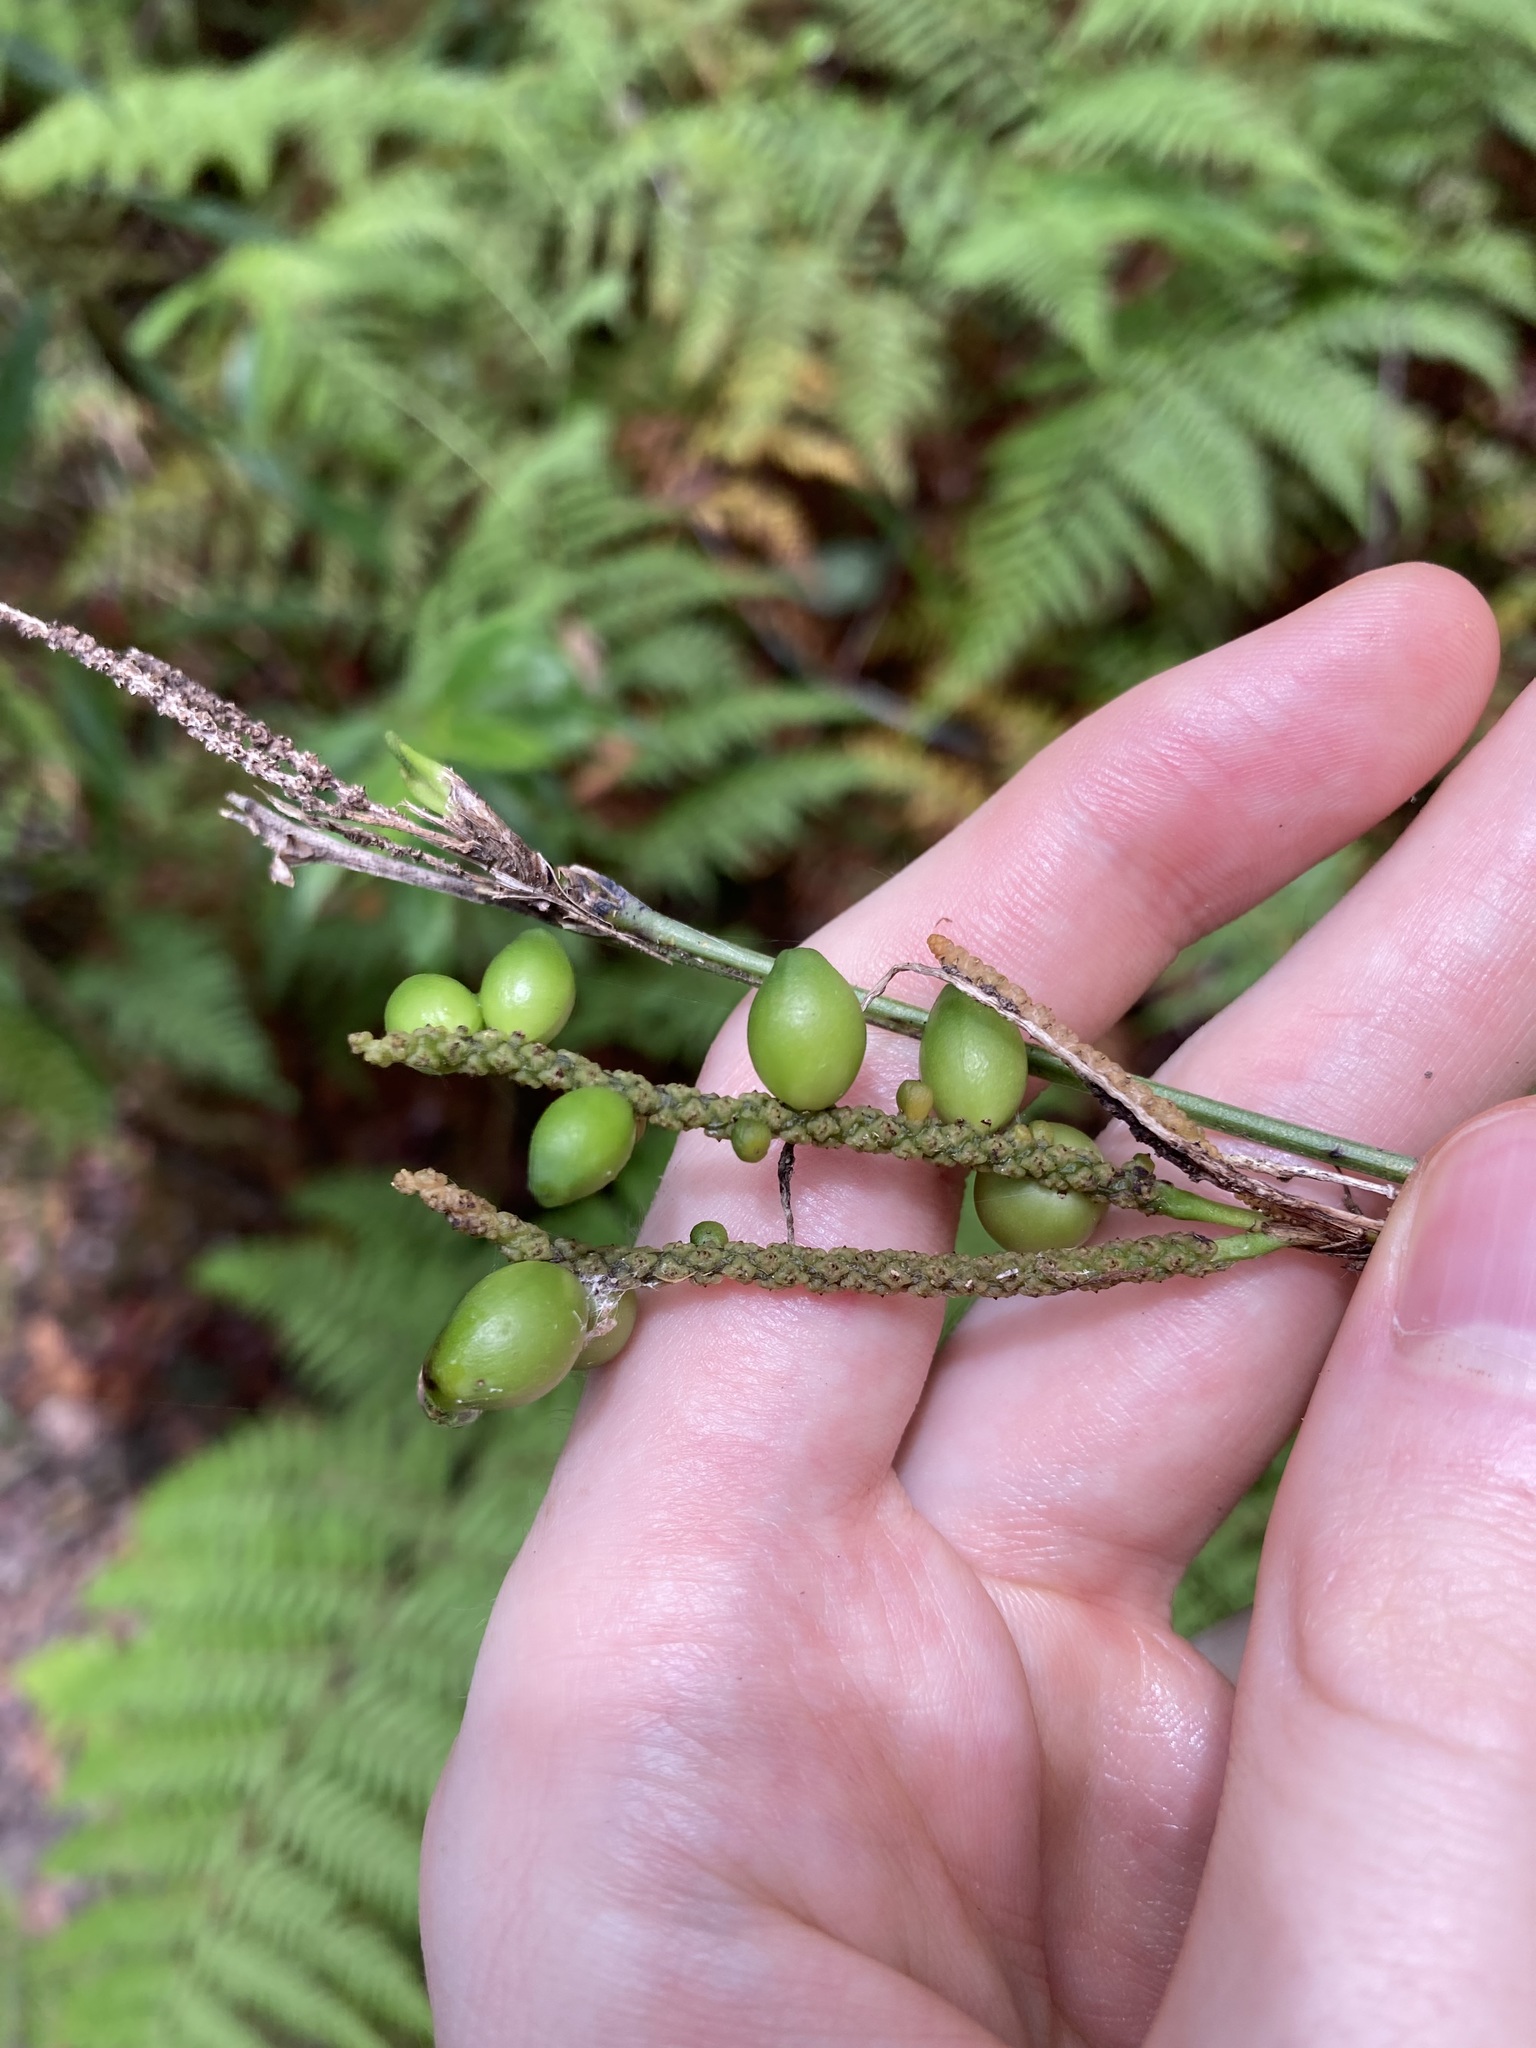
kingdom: Plantae
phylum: Tracheophyta
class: Liliopsida
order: Alismatales
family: Araceae
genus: Gymnostachys
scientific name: Gymnostachys anceps
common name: Settler's-flax
